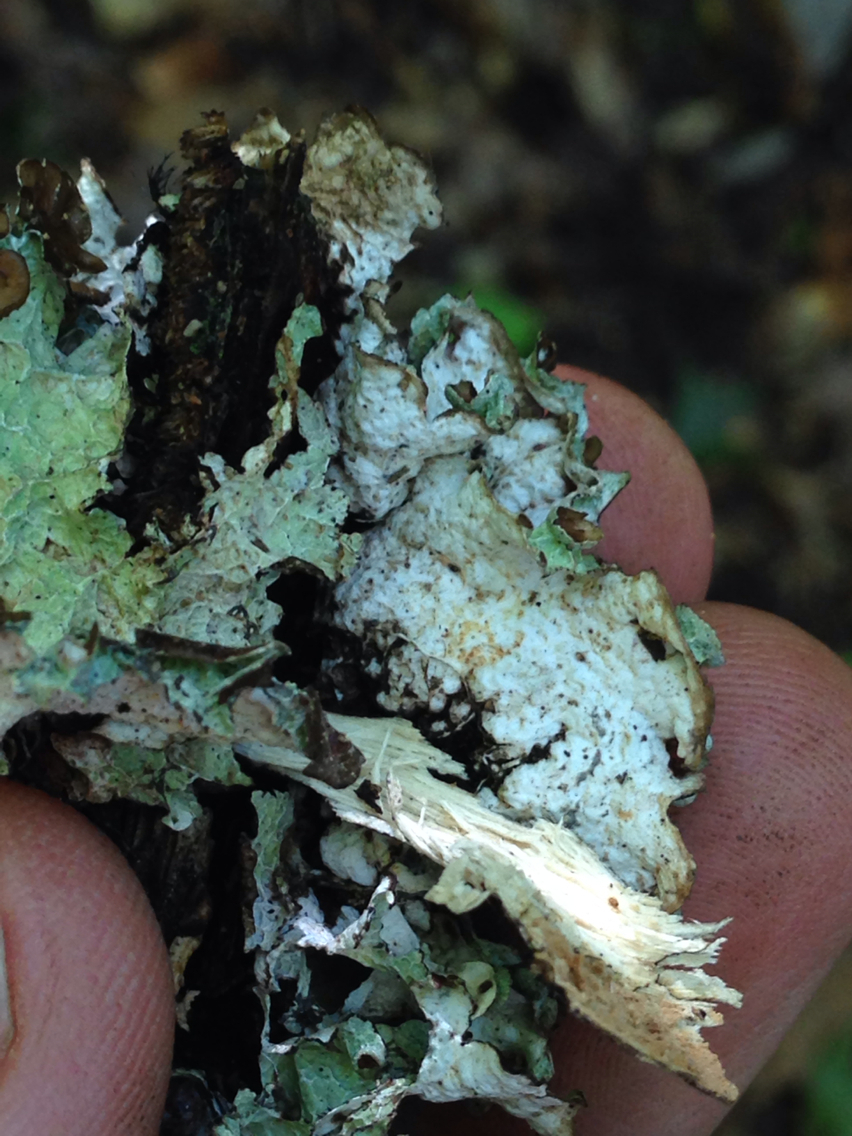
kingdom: Fungi
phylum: Ascomycota
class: Lecanoromycetes
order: Lecanorales
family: Parmeliaceae
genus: Platismatia
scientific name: Platismatia tuckermanii
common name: Crumpled rag lichen
